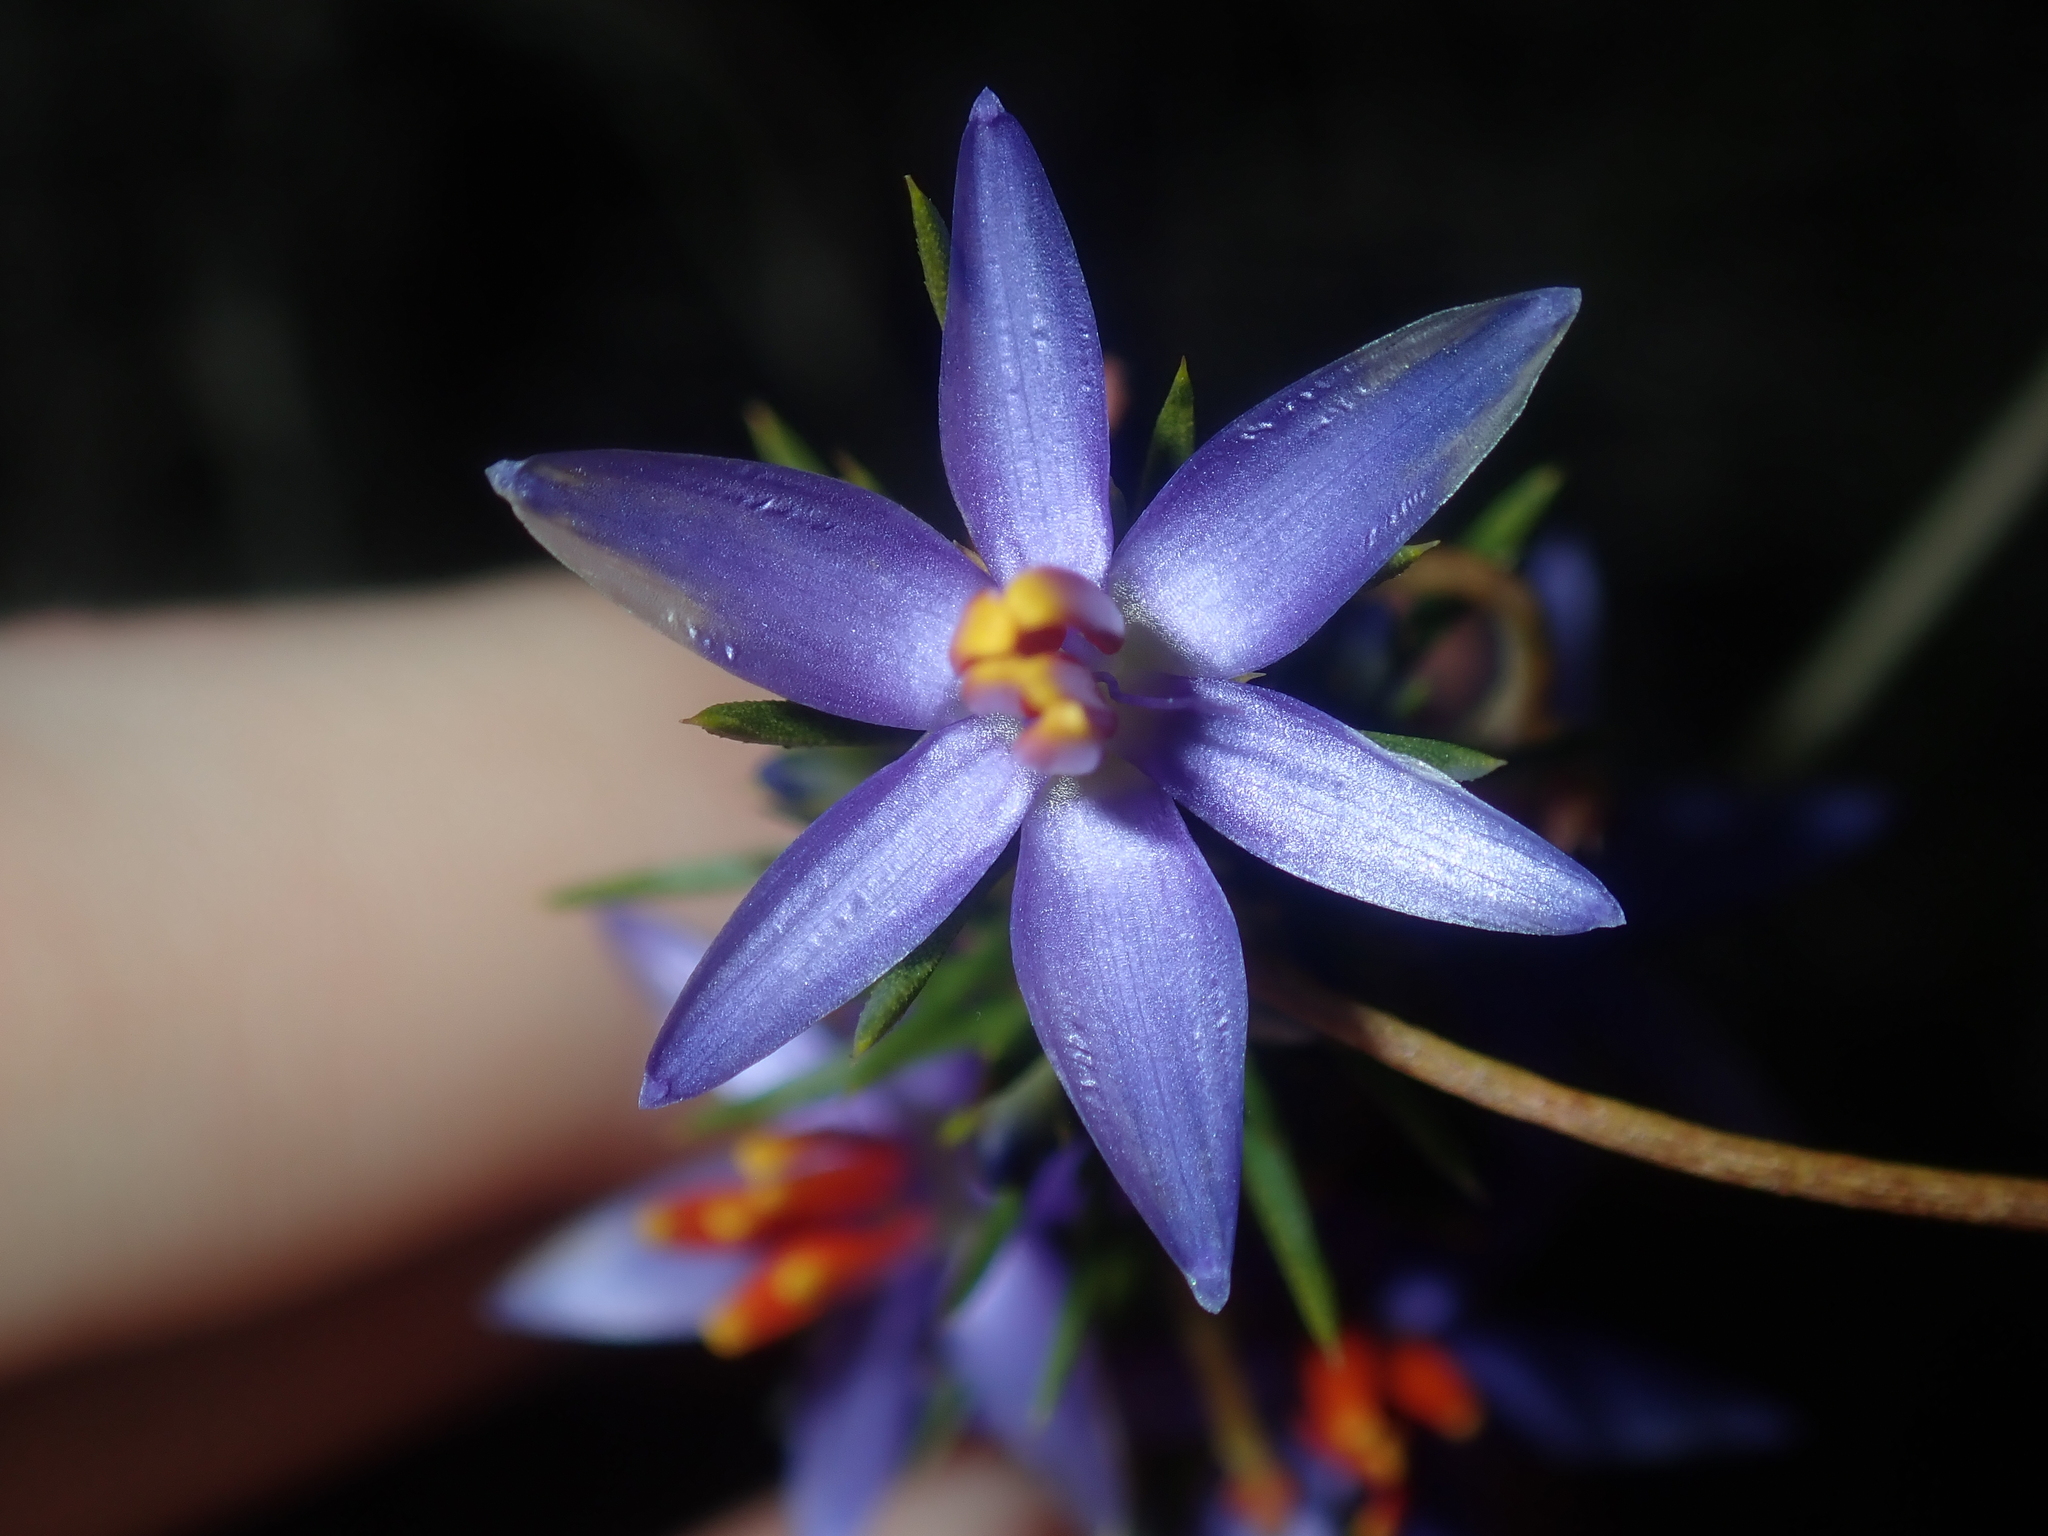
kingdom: Plantae
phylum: Tracheophyta
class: Liliopsida
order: Arecales
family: Dasypogonaceae
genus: Calectasia
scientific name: Calectasia narragara
